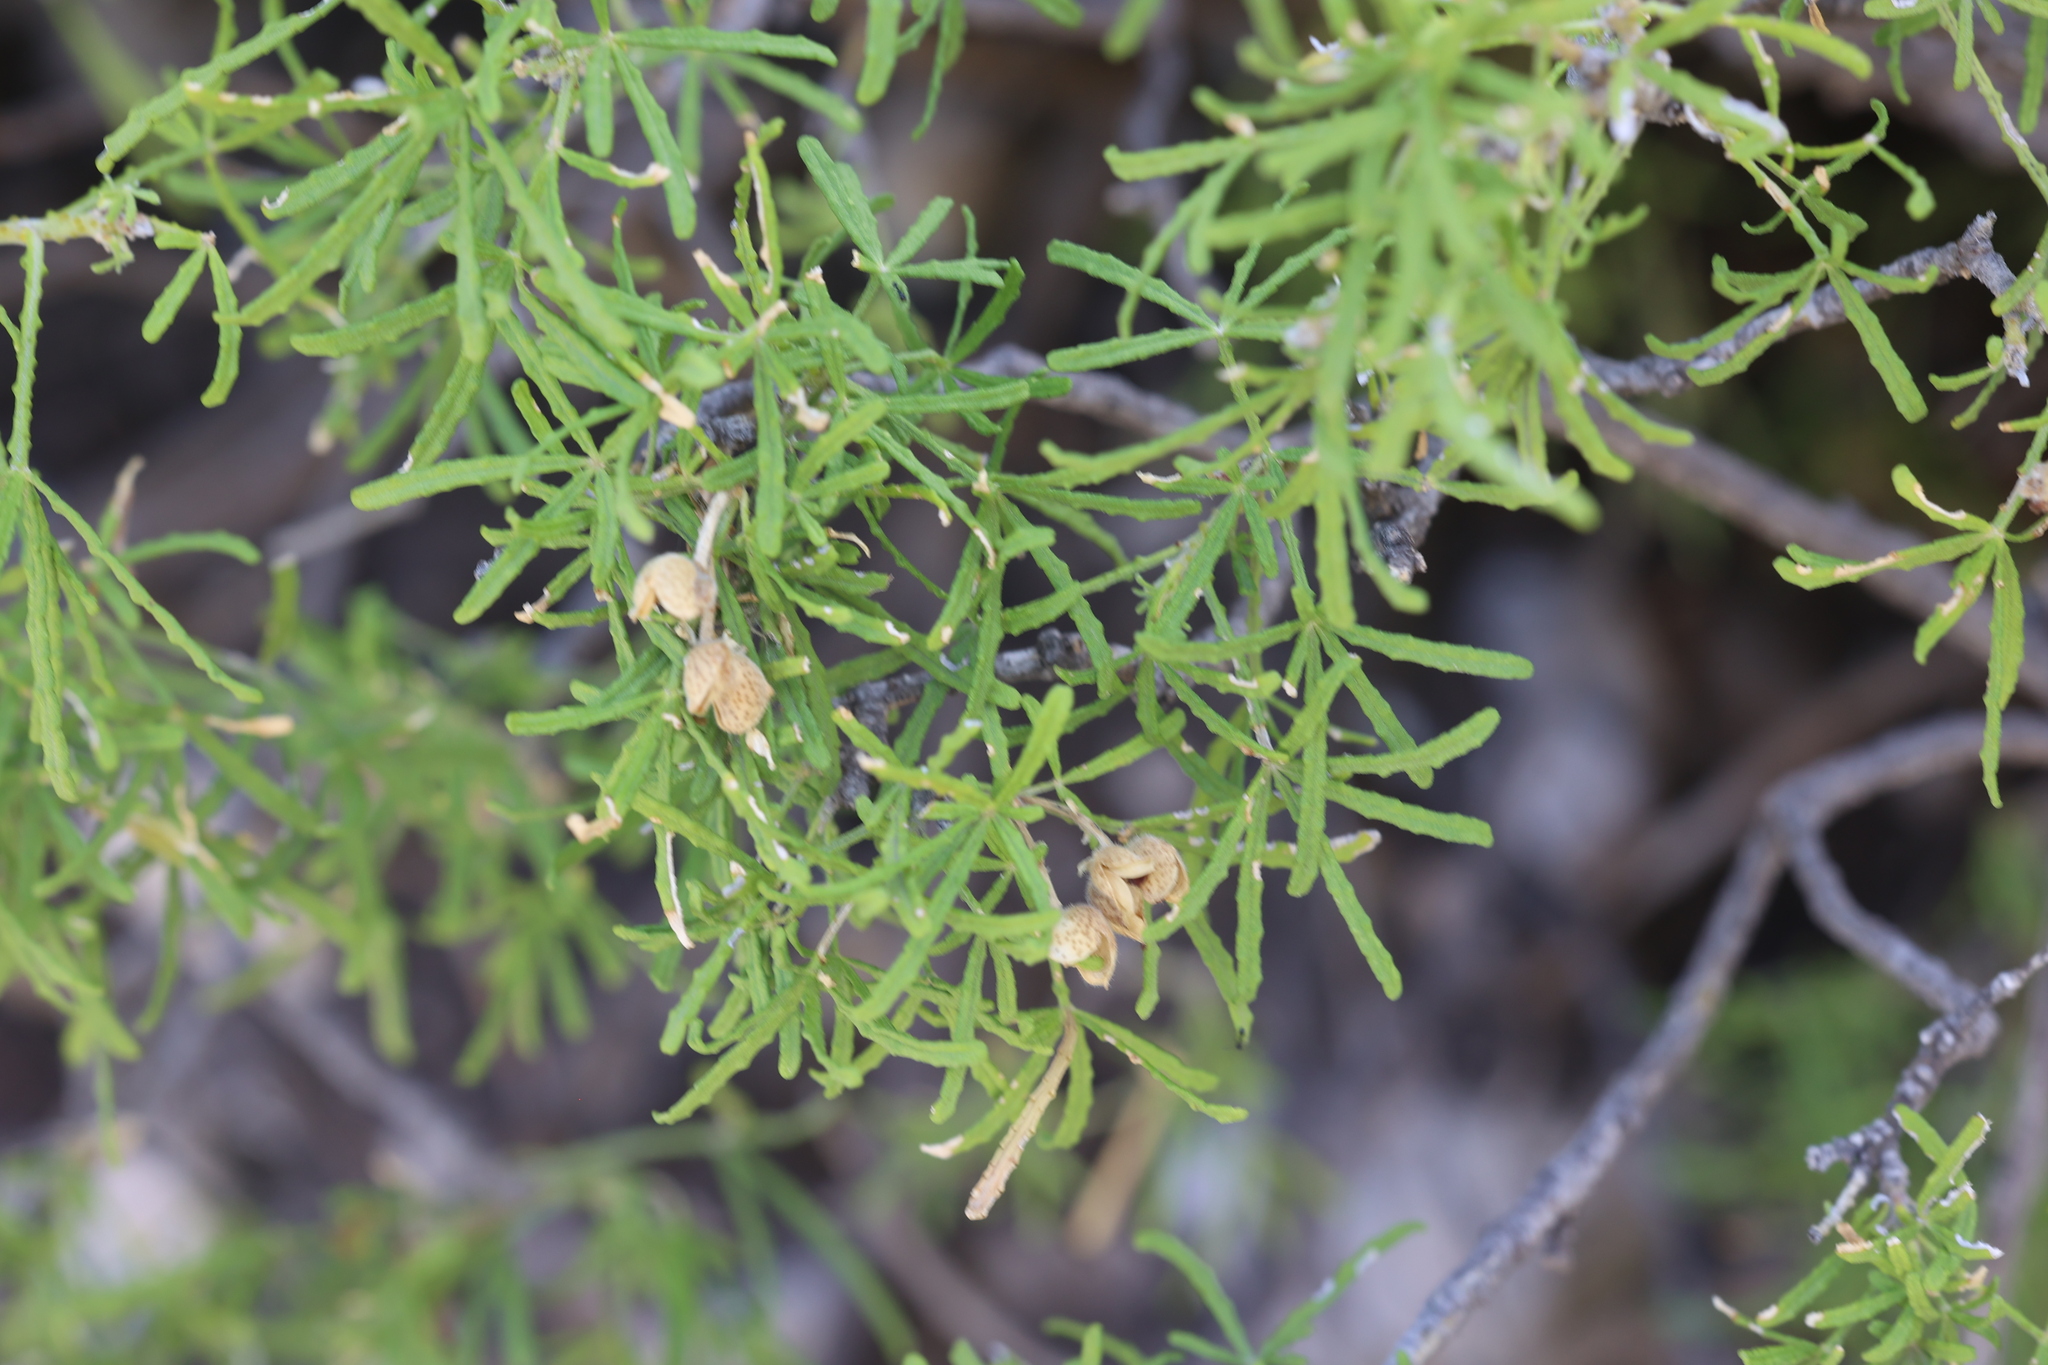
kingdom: Plantae
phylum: Tracheophyta
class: Magnoliopsida
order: Sapindales
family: Rutaceae
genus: Choisya
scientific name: Choisya dumosa
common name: Mexican-orange
